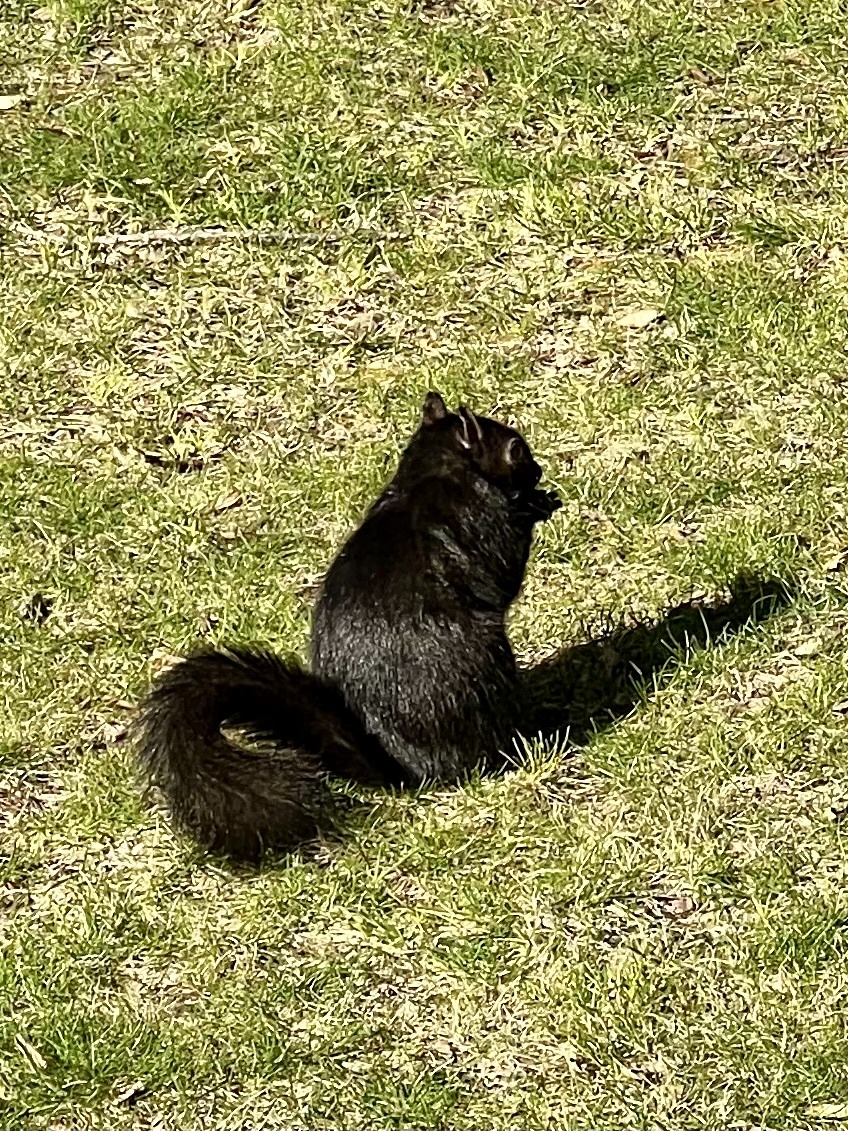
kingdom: Animalia
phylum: Chordata
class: Mammalia
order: Rodentia
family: Sciuridae
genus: Sciurus
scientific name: Sciurus carolinensis
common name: Eastern gray squirrel
